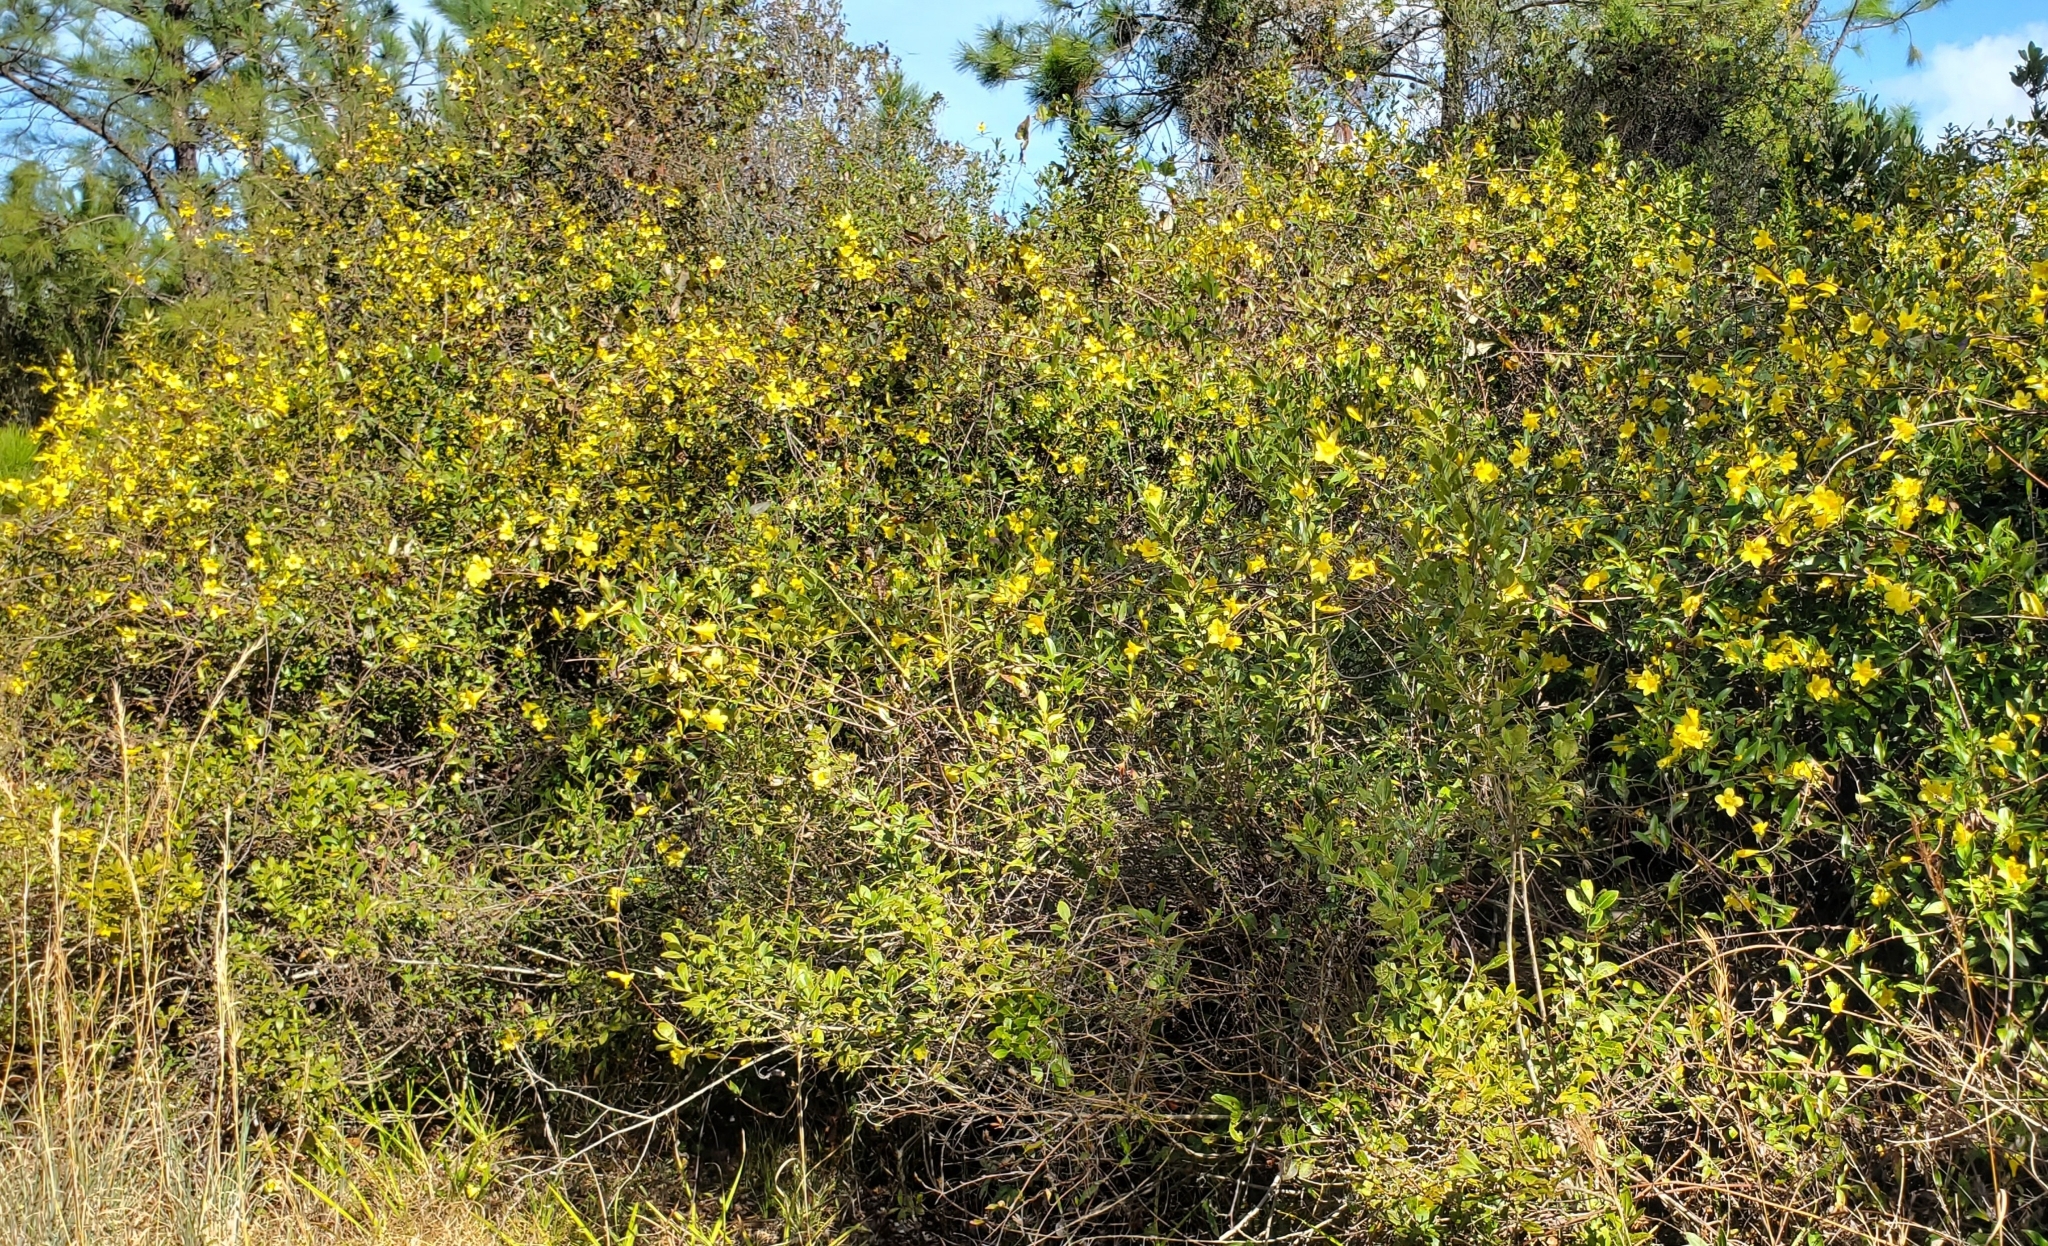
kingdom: Plantae
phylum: Tracheophyta
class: Magnoliopsida
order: Gentianales
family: Gelsemiaceae
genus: Gelsemium
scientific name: Gelsemium sempervirens
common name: Carolina-jasmine
